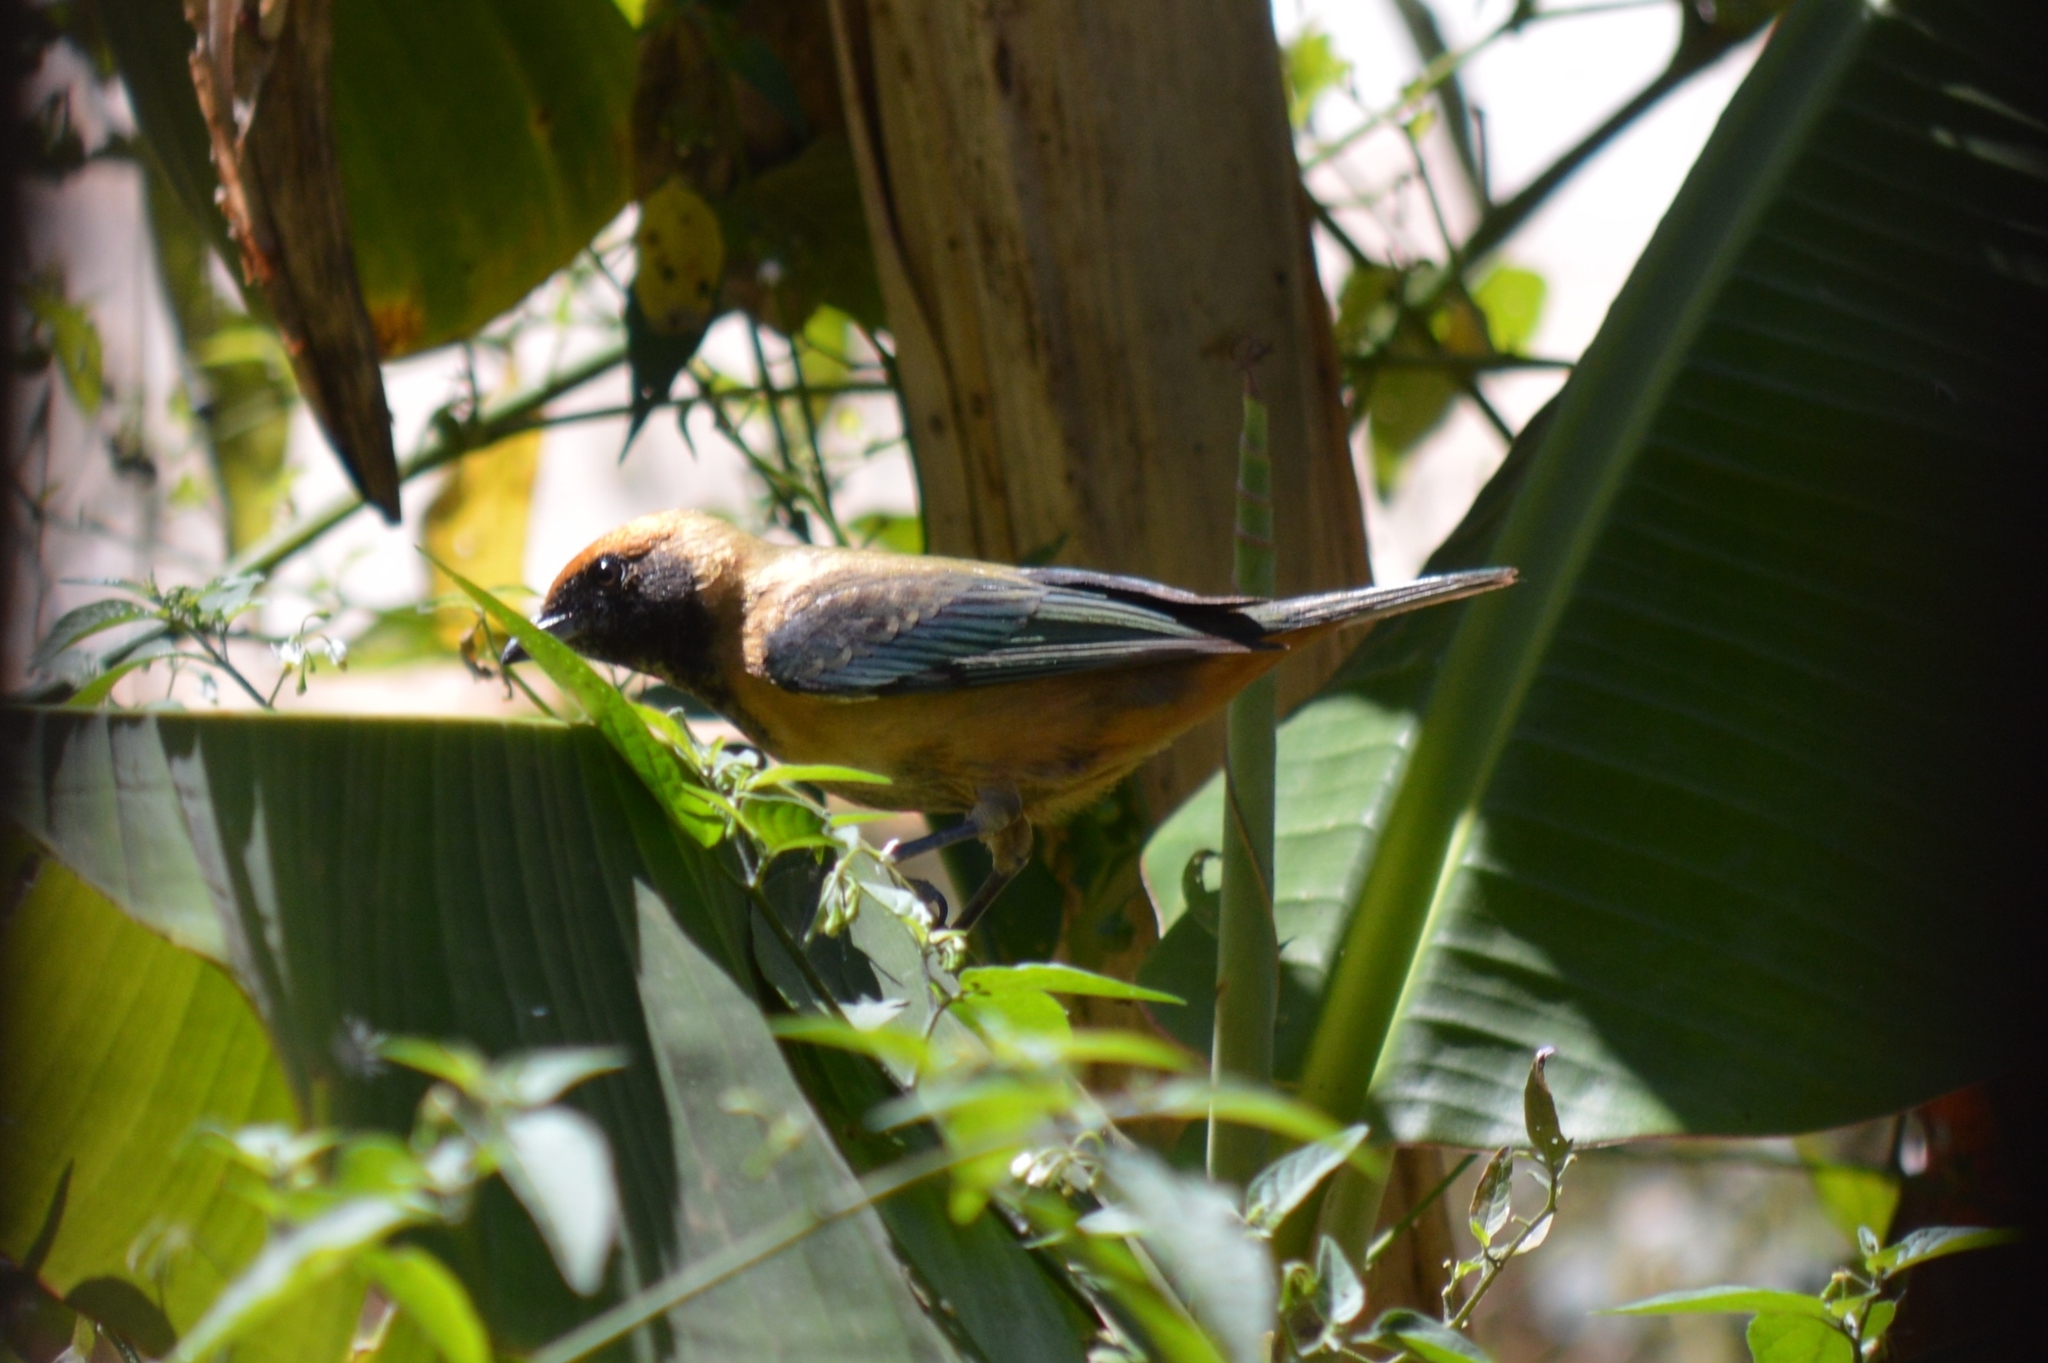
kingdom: Animalia
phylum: Chordata
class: Aves
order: Passeriformes
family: Thraupidae
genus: Stilpnia
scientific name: Stilpnia cayana
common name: Burnished-buff tanager
